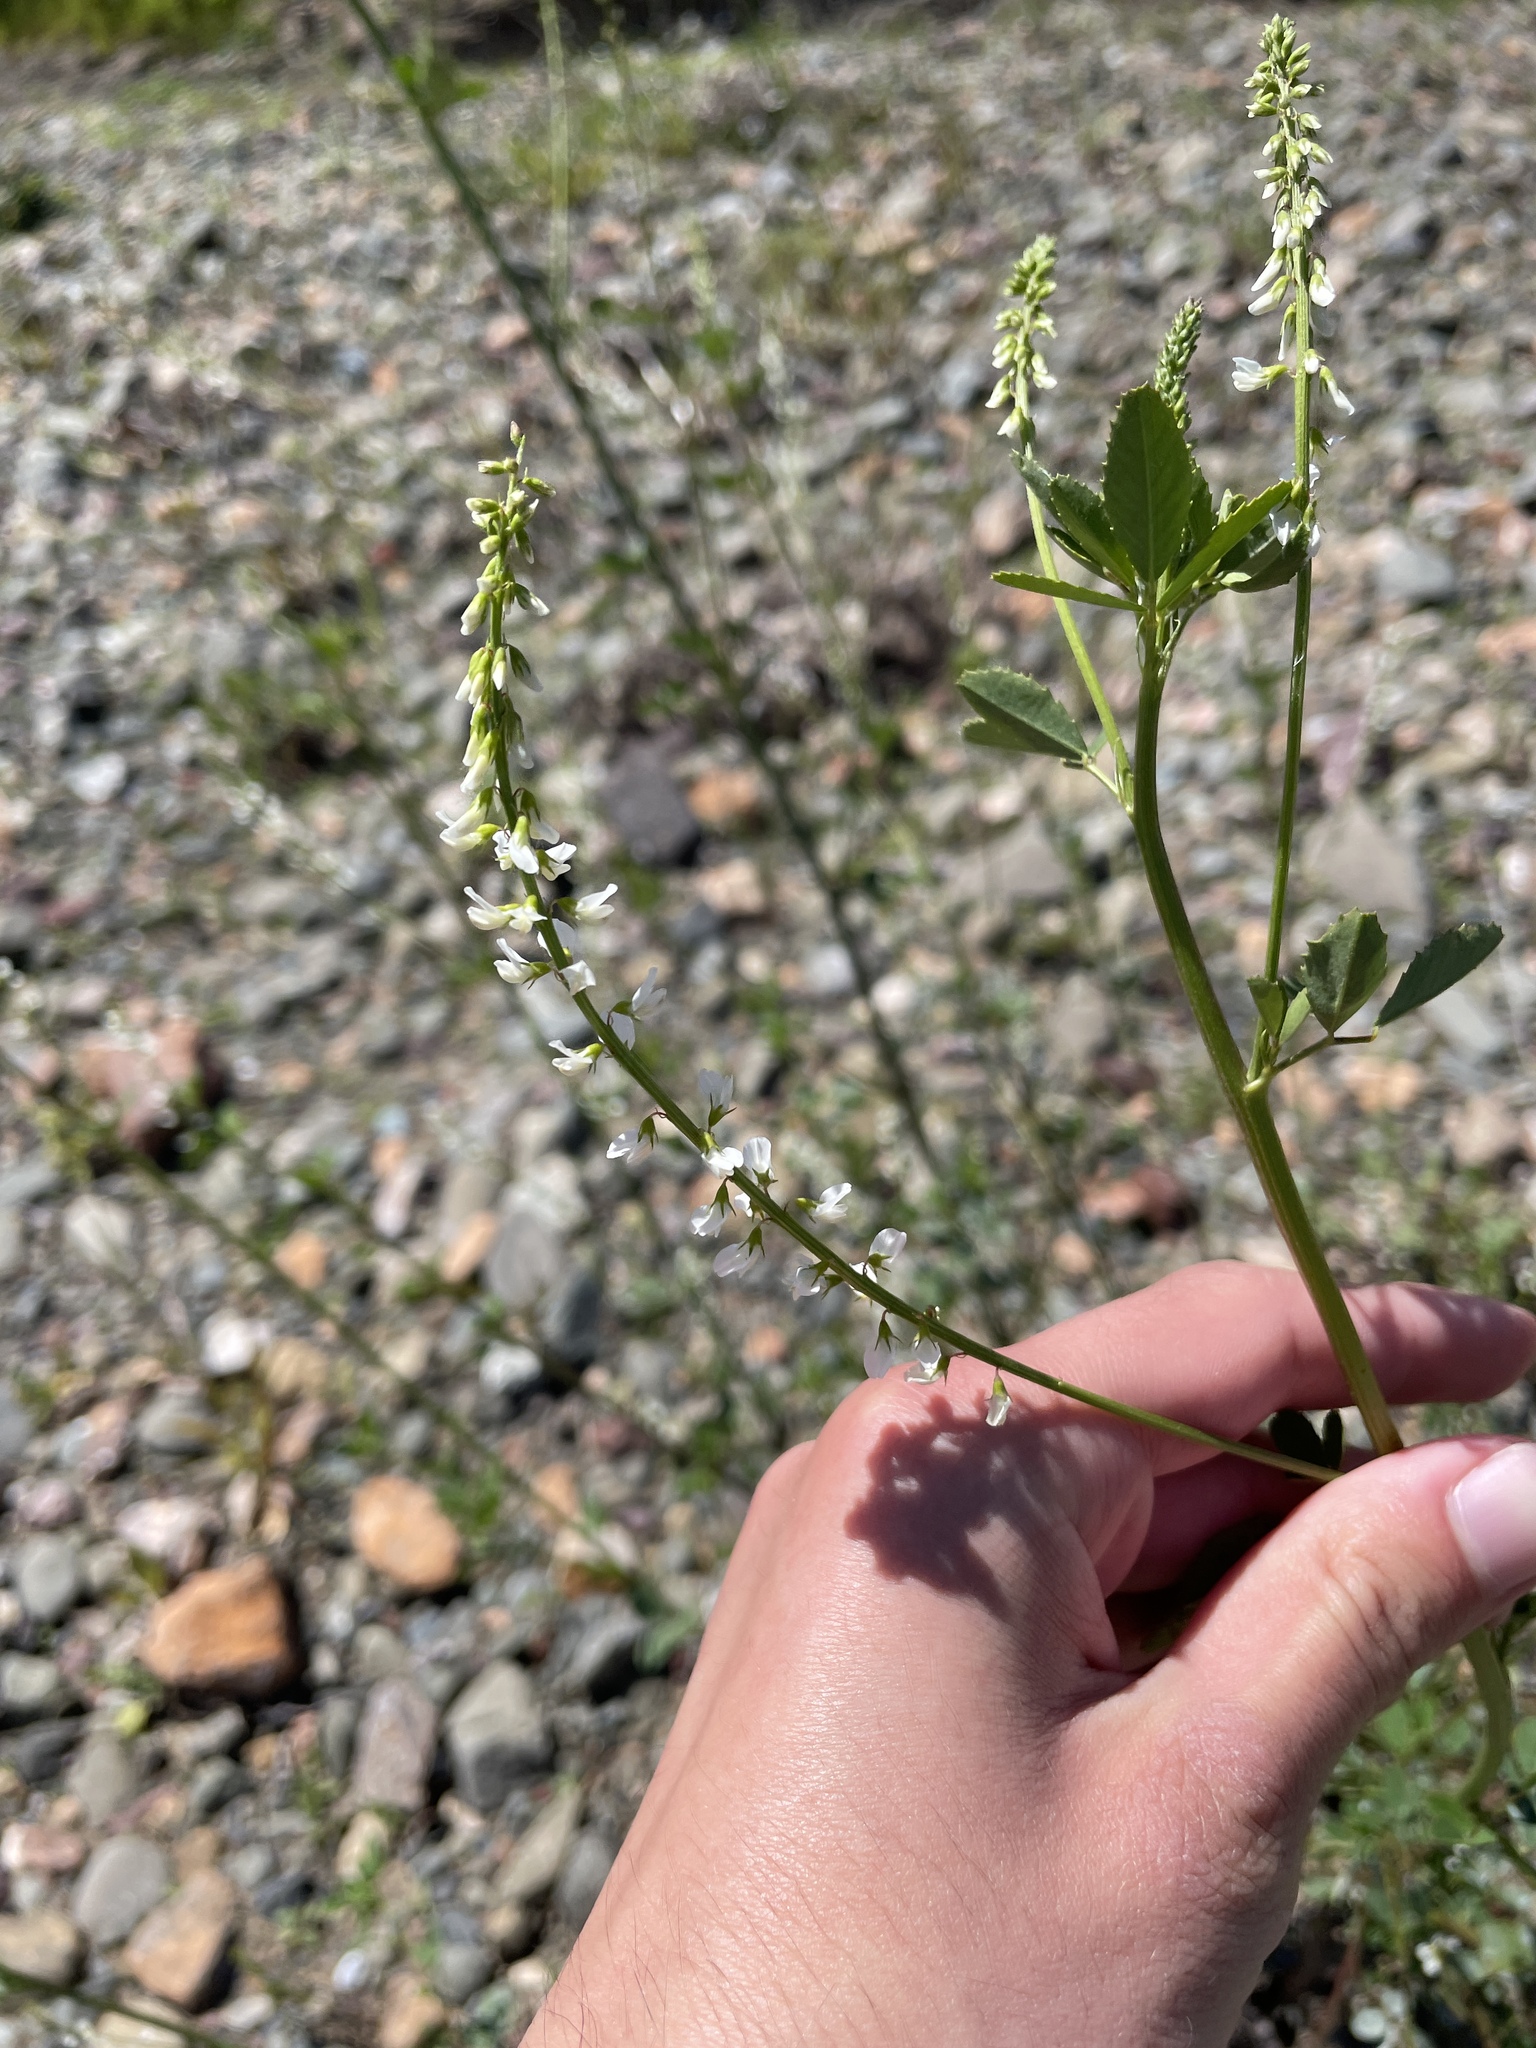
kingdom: Plantae
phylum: Tracheophyta
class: Magnoliopsida
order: Fabales
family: Fabaceae
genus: Melilotus
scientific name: Melilotus albus
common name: White melilot
